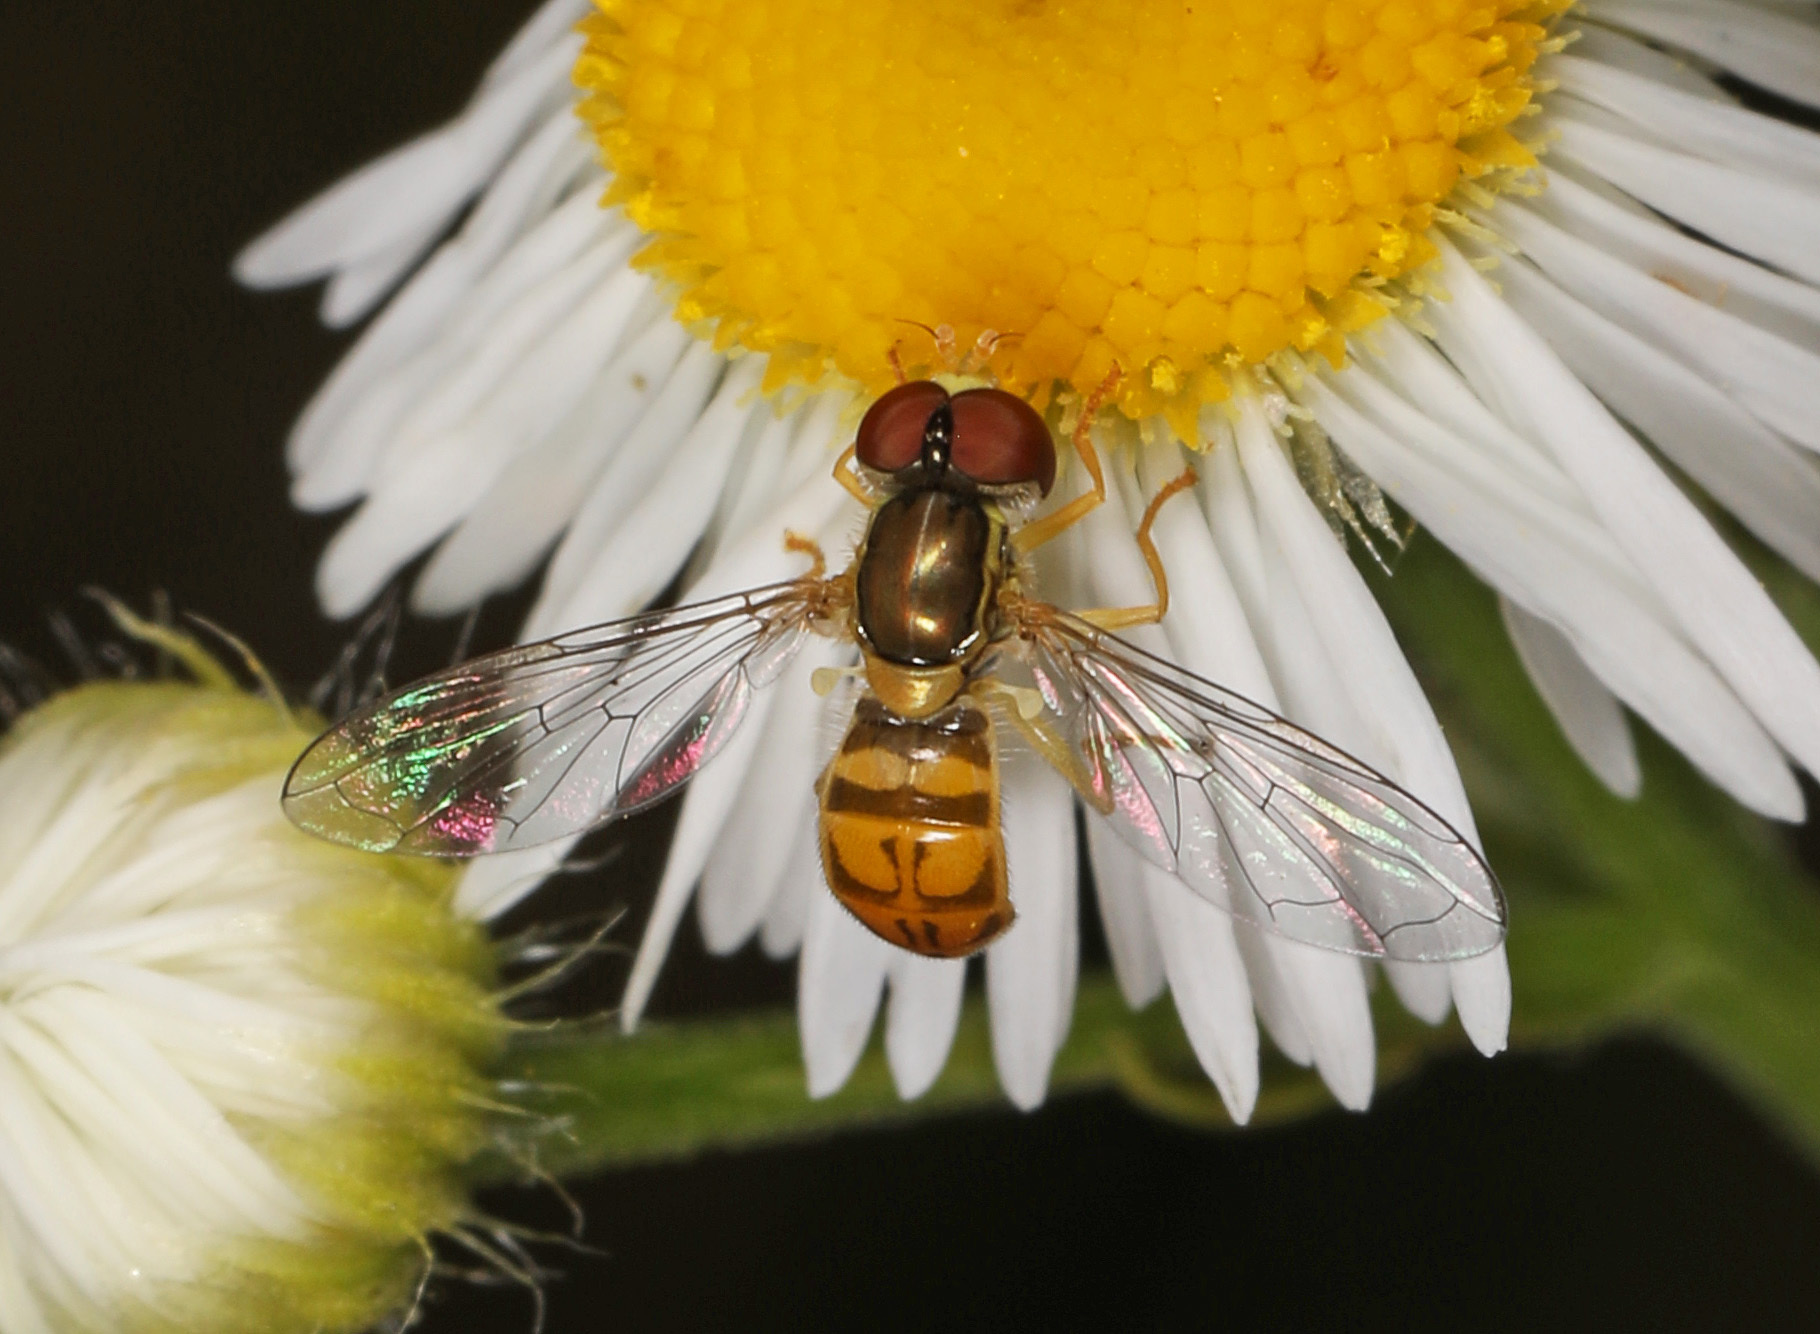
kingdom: Animalia
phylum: Arthropoda
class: Insecta
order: Diptera
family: Syrphidae
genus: Toxomerus
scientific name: Toxomerus marginatus
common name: Syrphid fly
